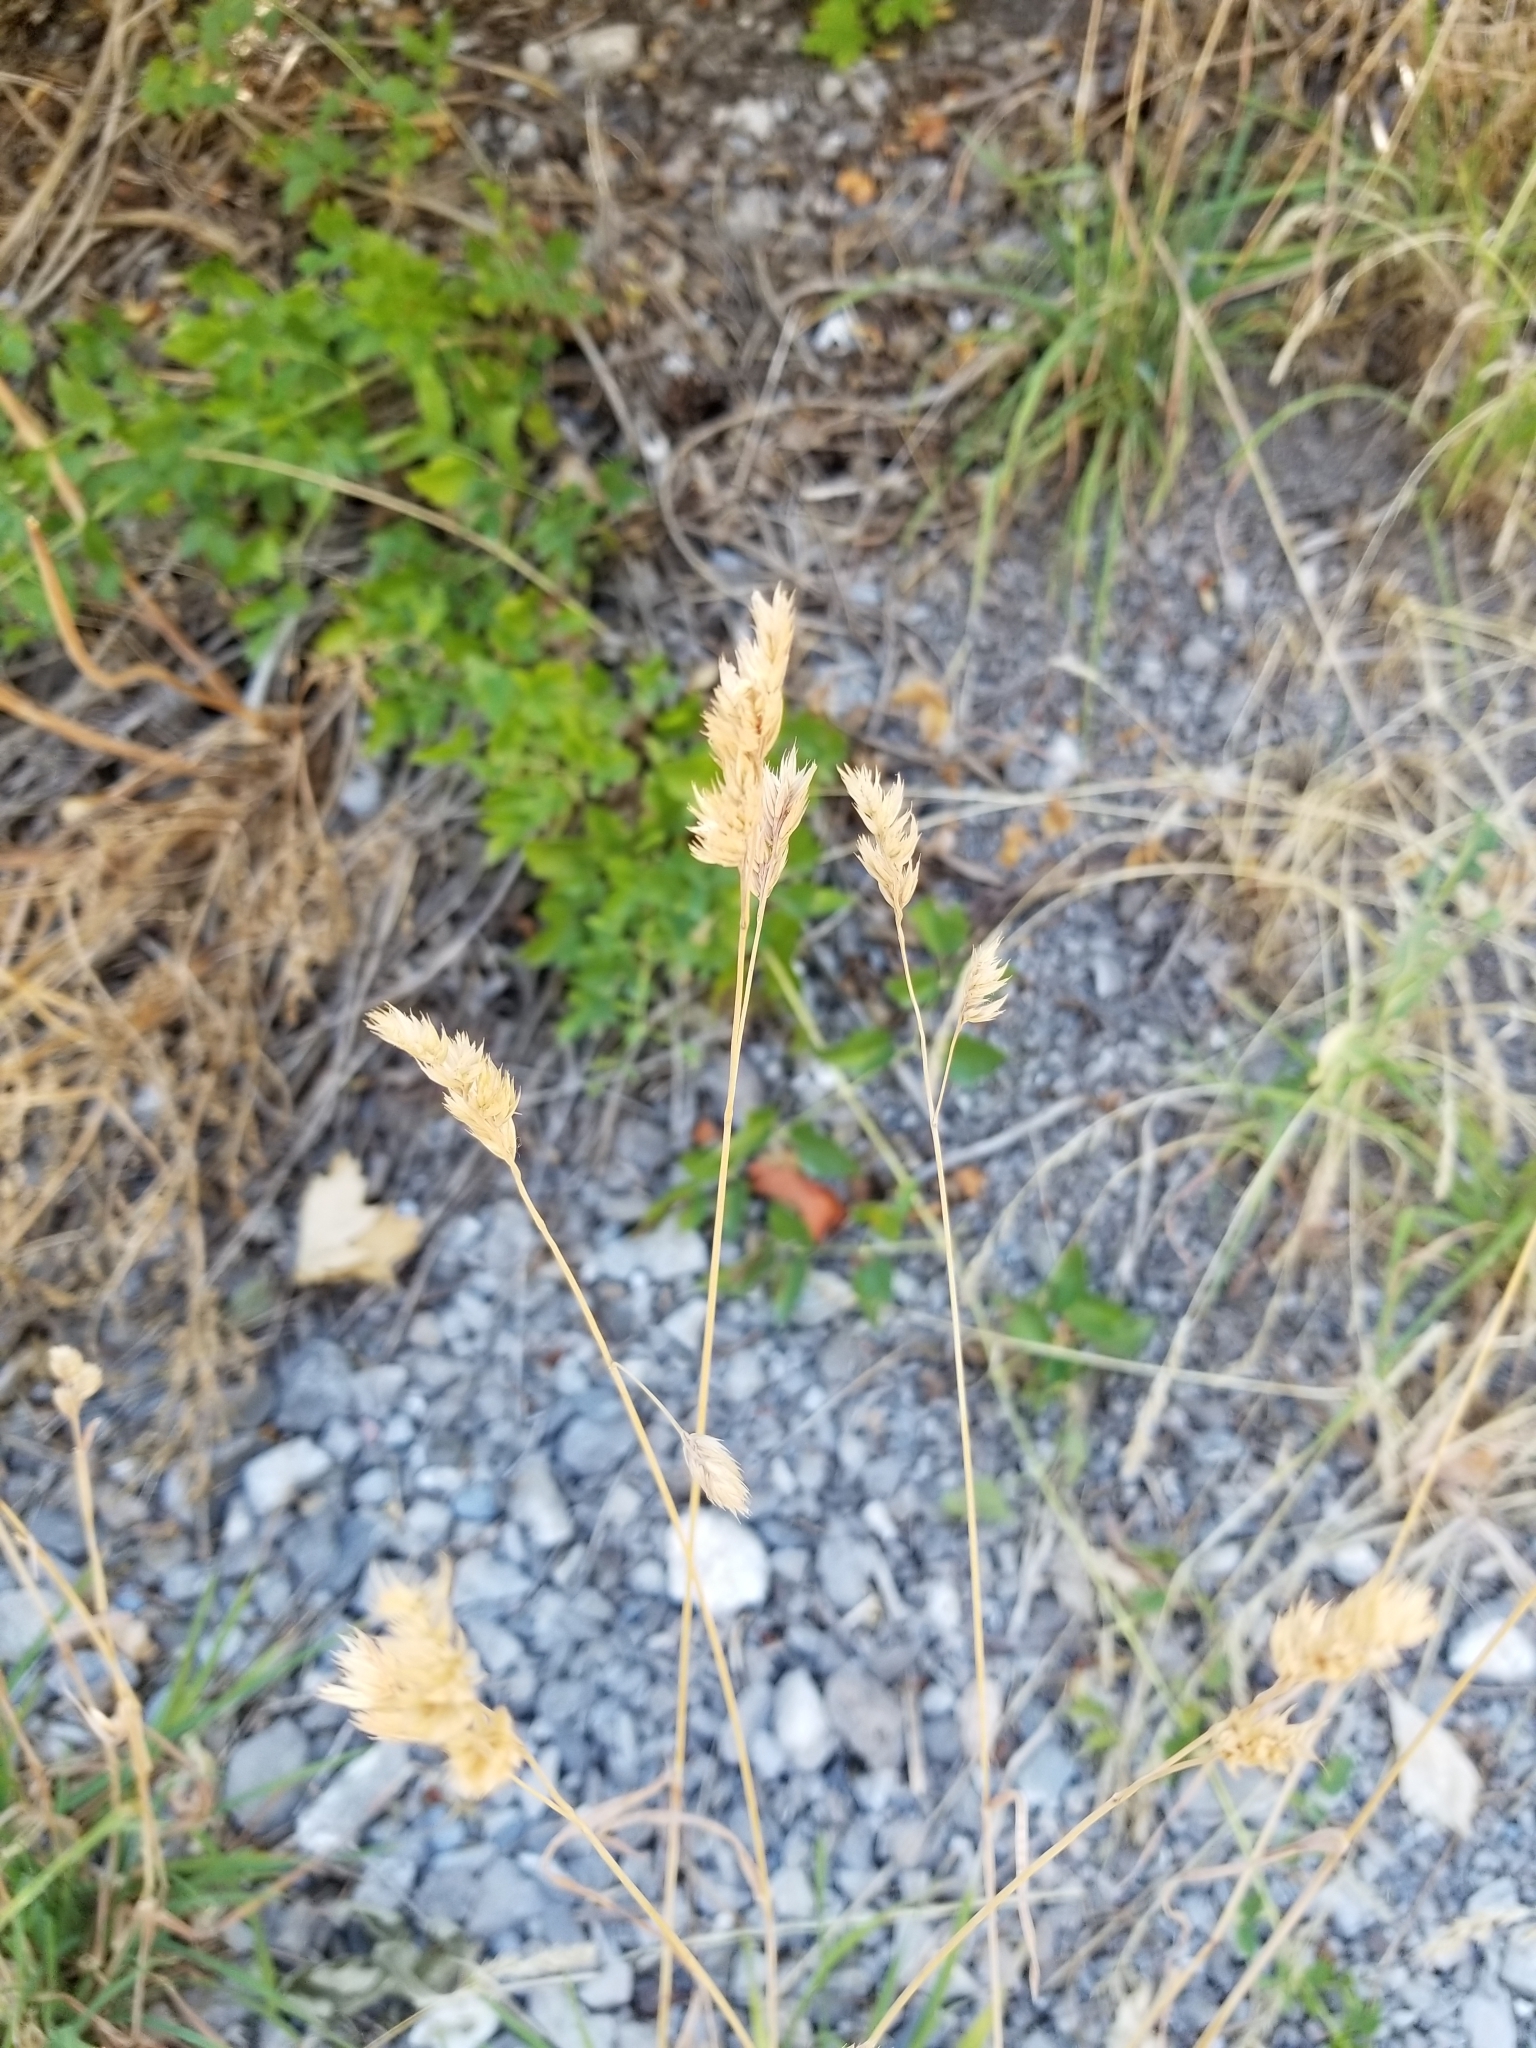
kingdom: Plantae
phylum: Tracheophyta
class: Liliopsida
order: Poales
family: Poaceae
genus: Dactylis
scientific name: Dactylis glomerata
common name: Orchardgrass
